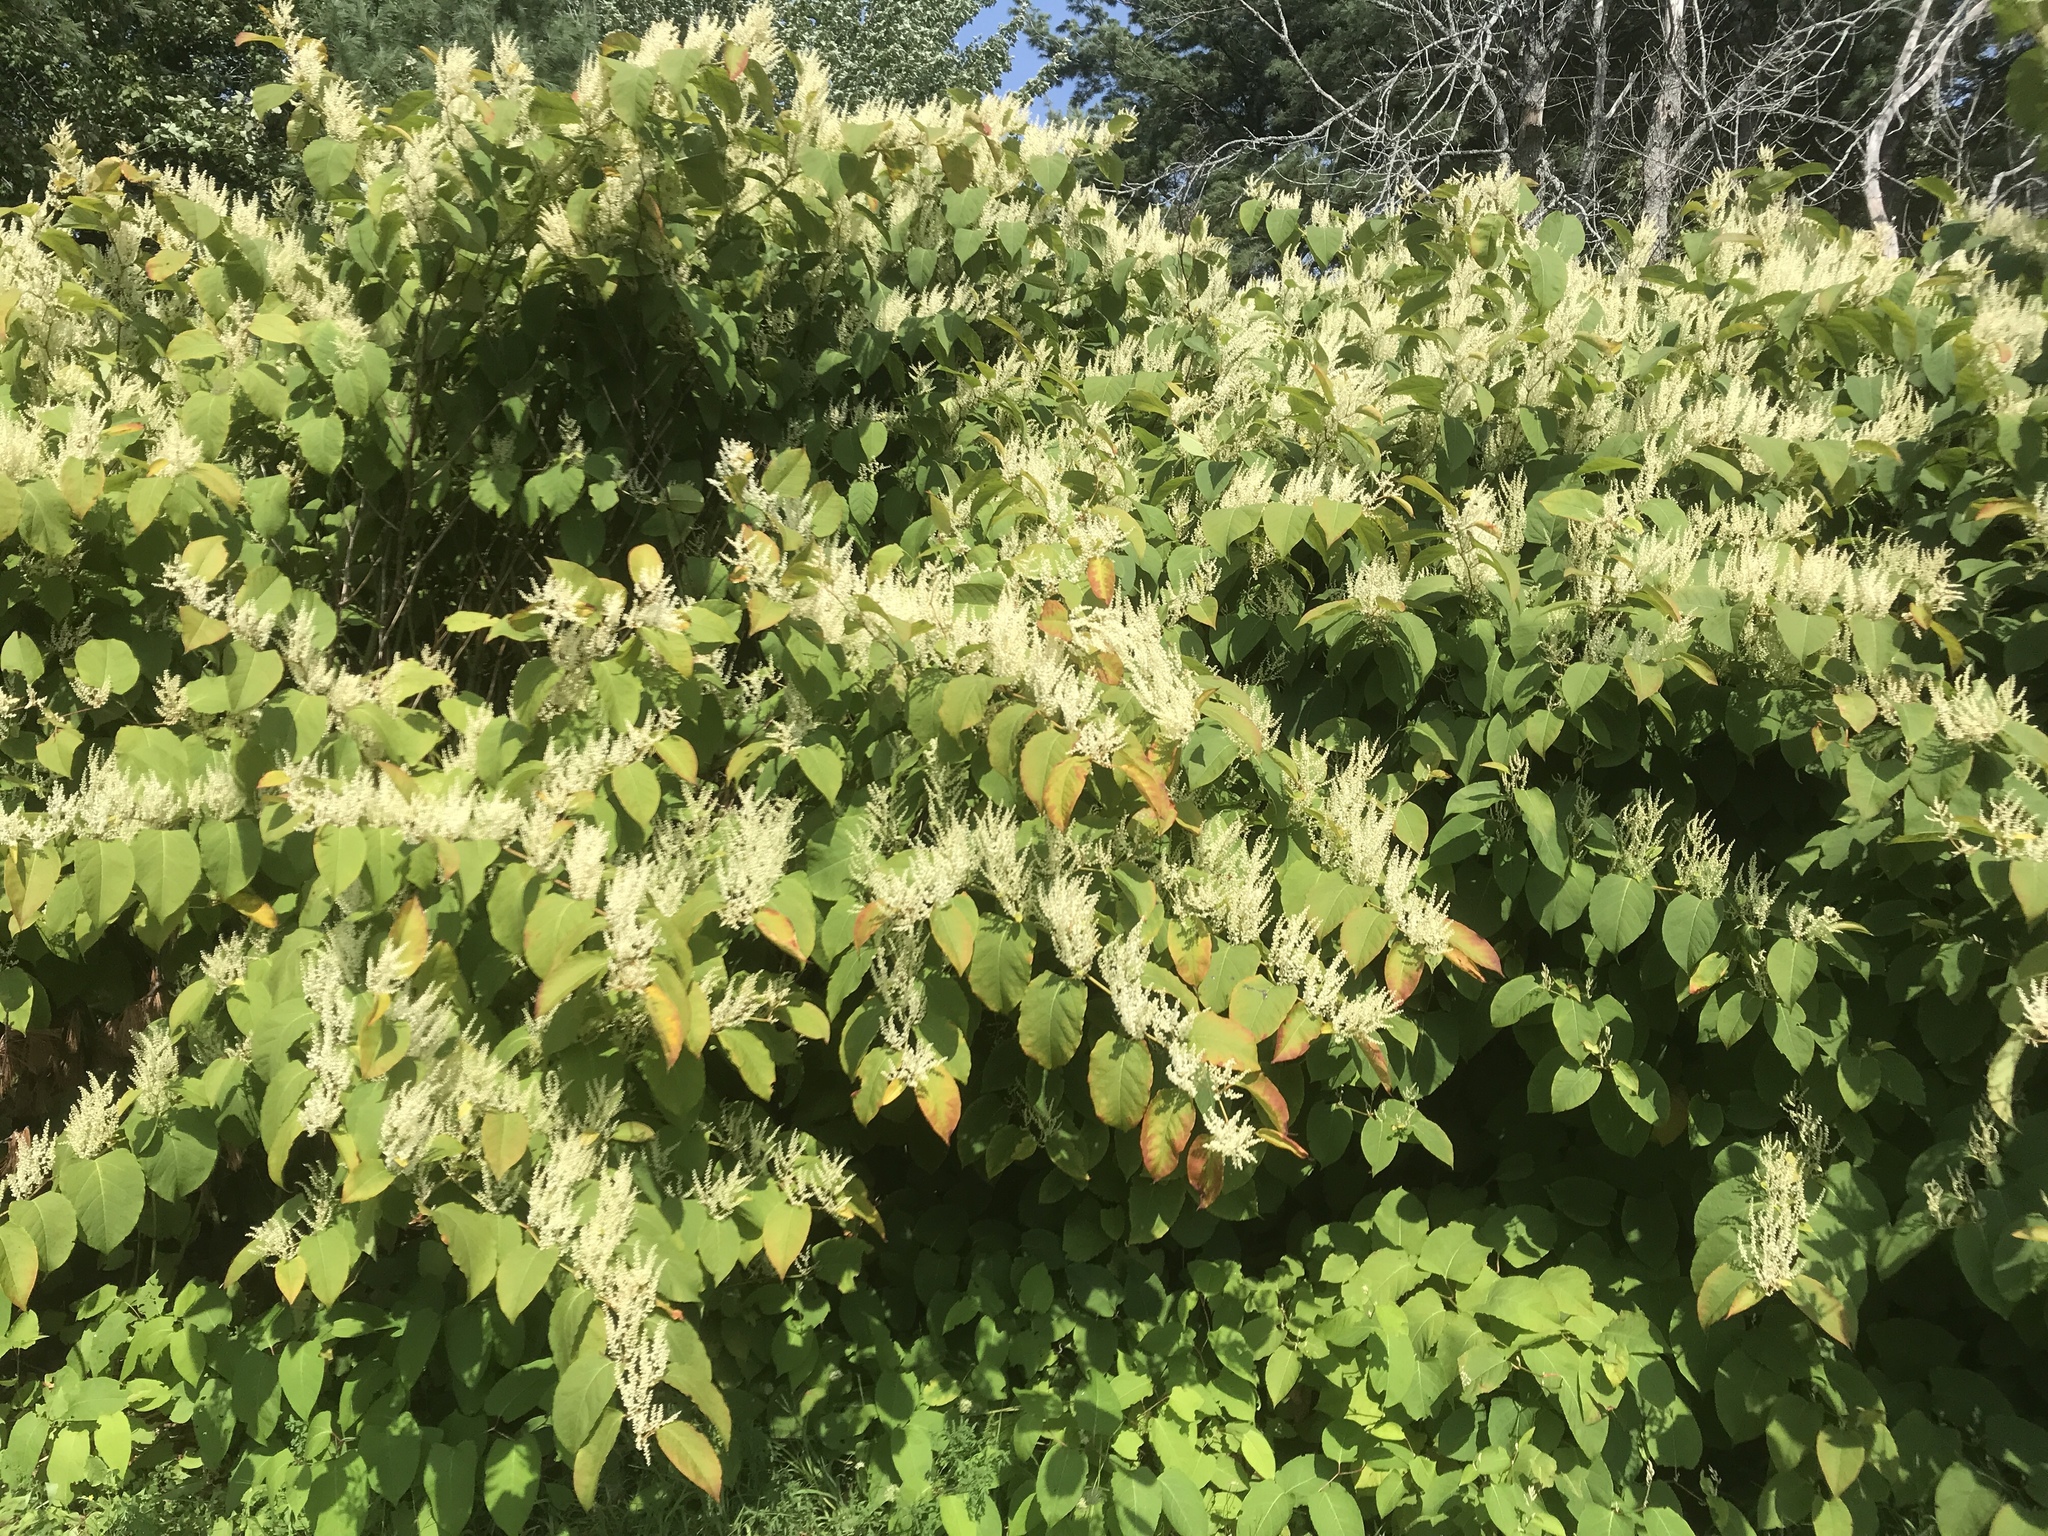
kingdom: Plantae
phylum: Tracheophyta
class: Magnoliopsida
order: Caryophyllales
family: Polygonaceae
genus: Reynoutria
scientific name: Reynoutria japonica
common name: Japanese knotweed
